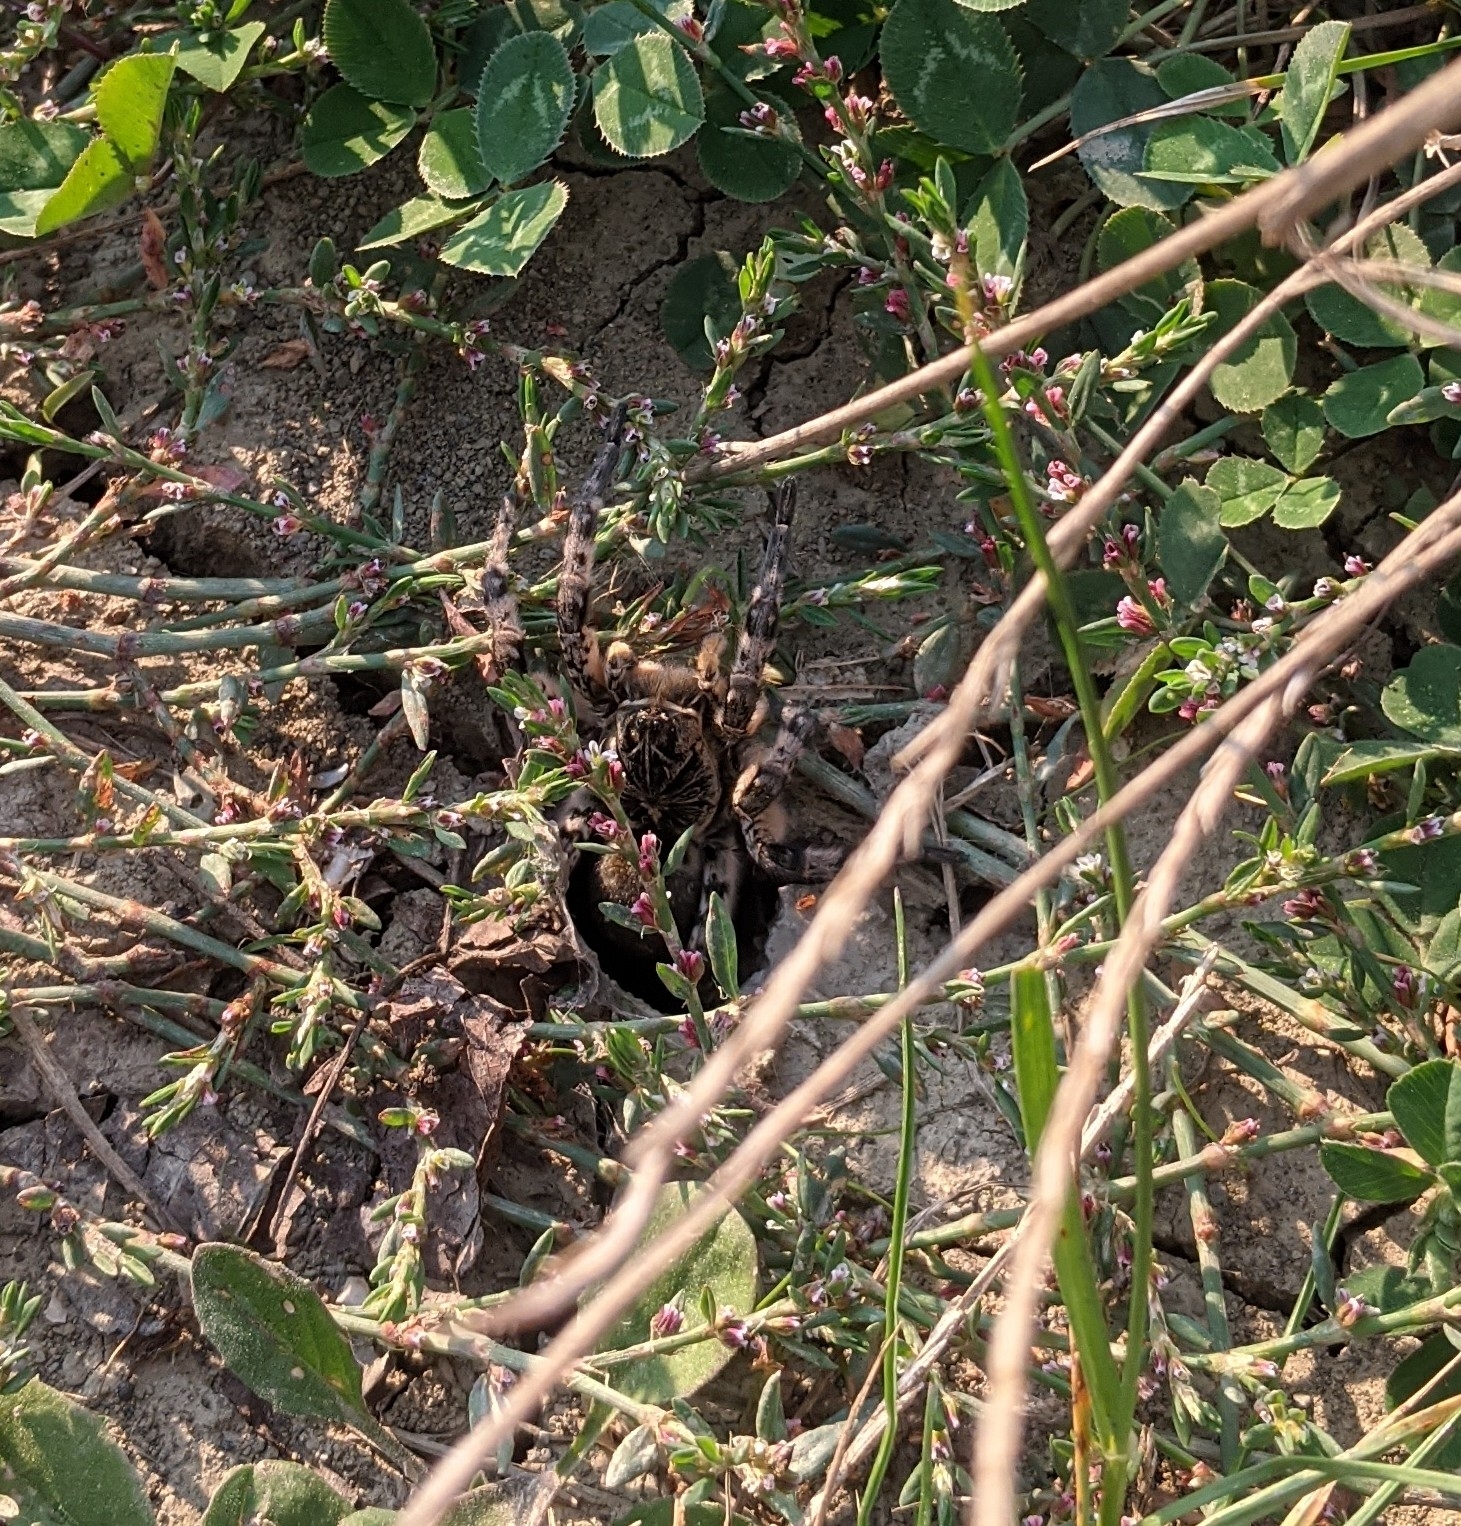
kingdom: Animalia
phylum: Arthropoda
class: Arachnida
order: Araneae
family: Lycosidae
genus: Lycosa
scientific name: Lycosa singoriensis
